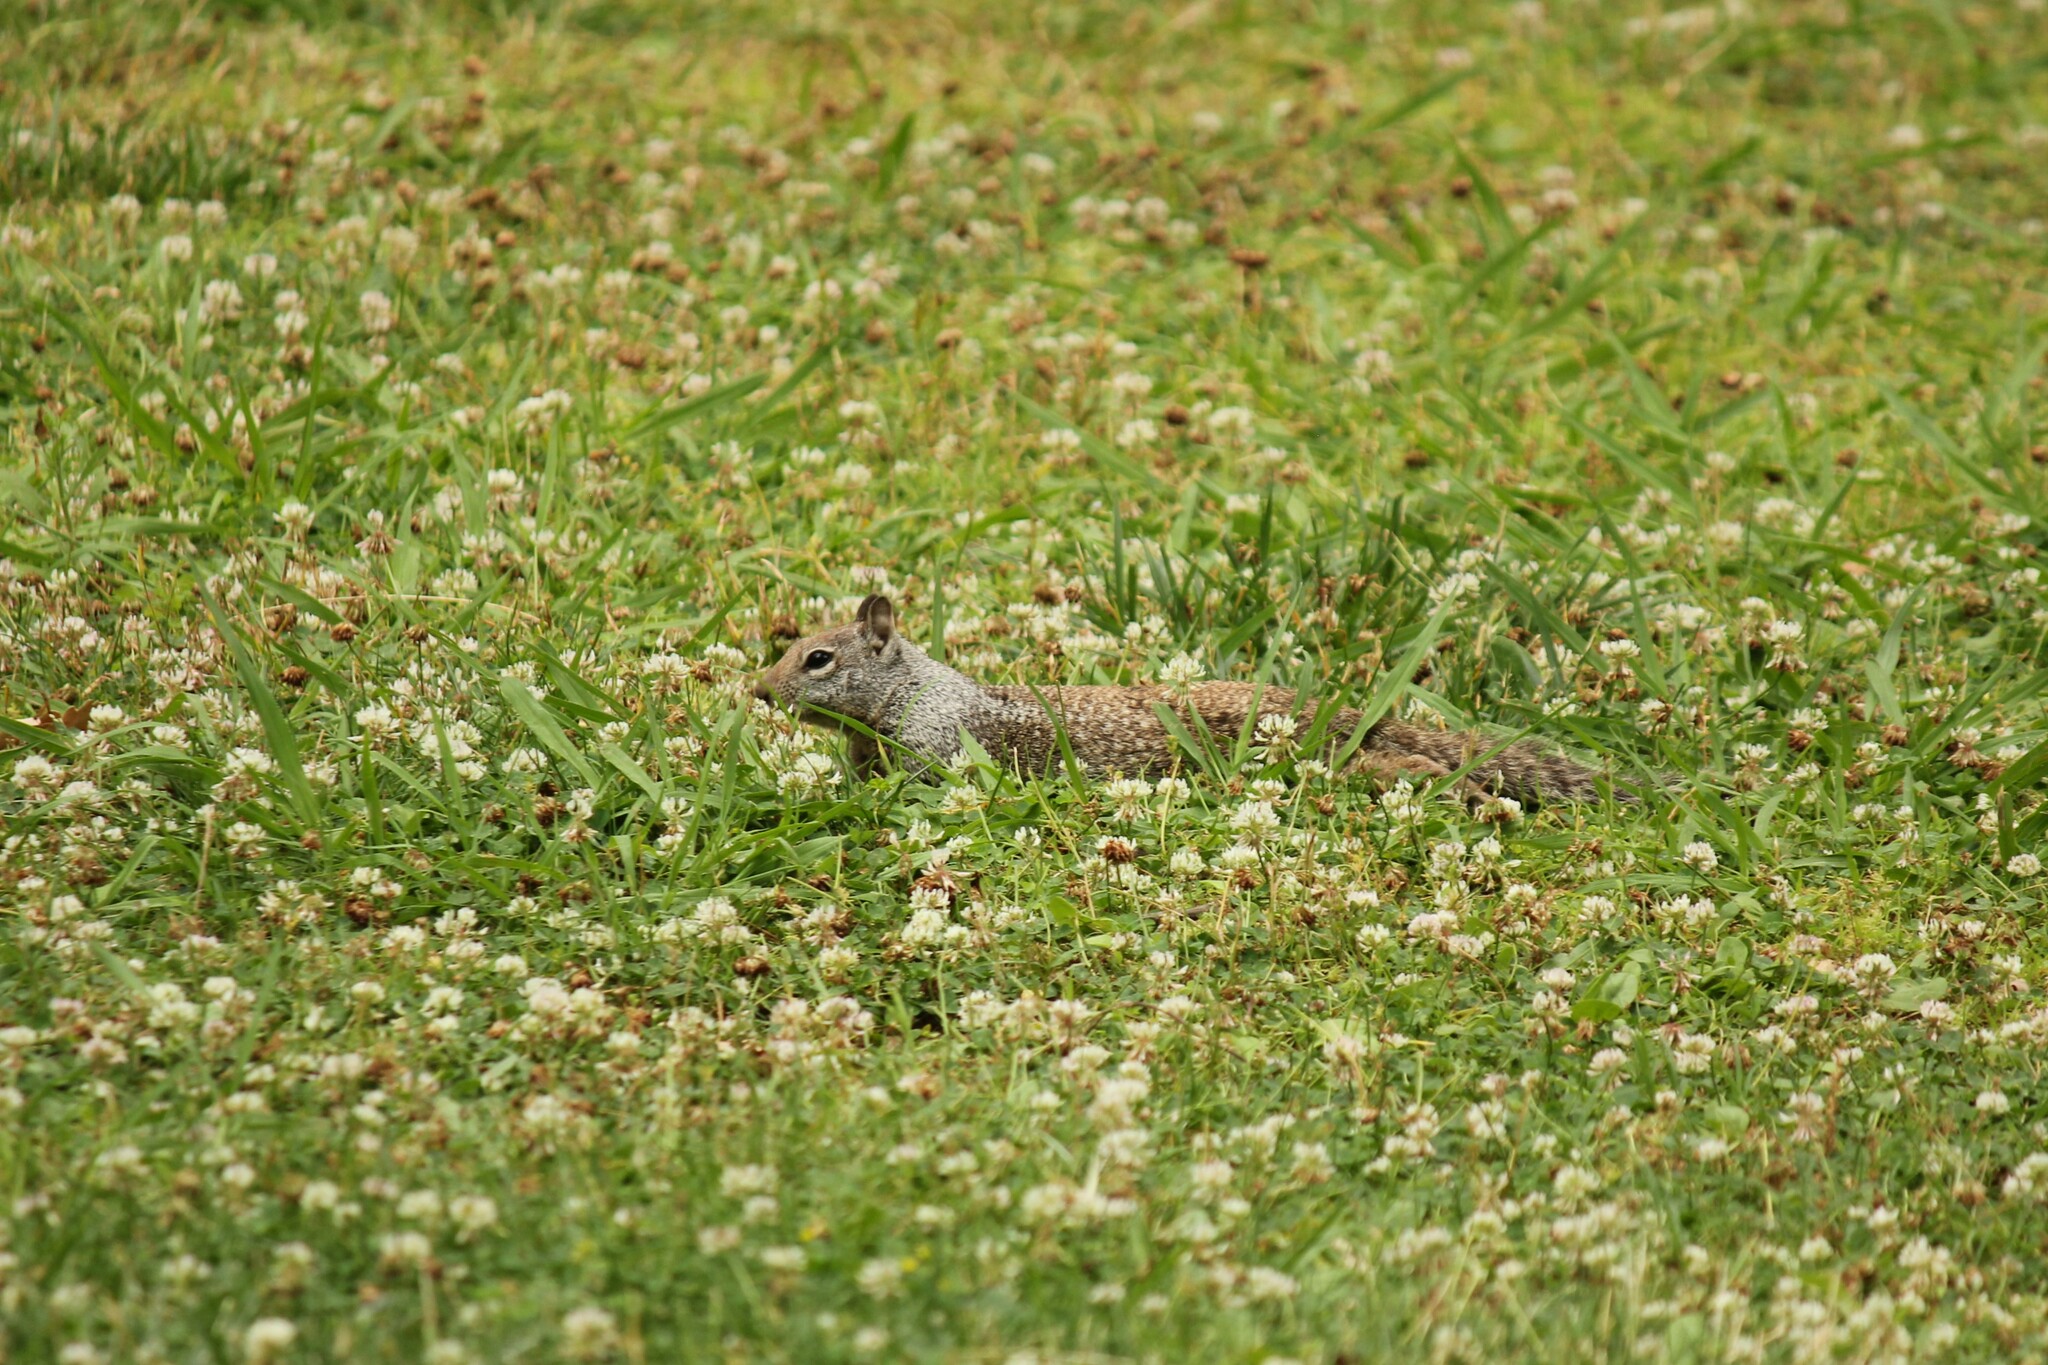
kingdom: Animalia
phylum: Chordata
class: Mammalia
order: Rodentia
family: Sciuridae
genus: Otospermophilus
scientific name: Otospermophilus beecheyi
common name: California ground squirrel
